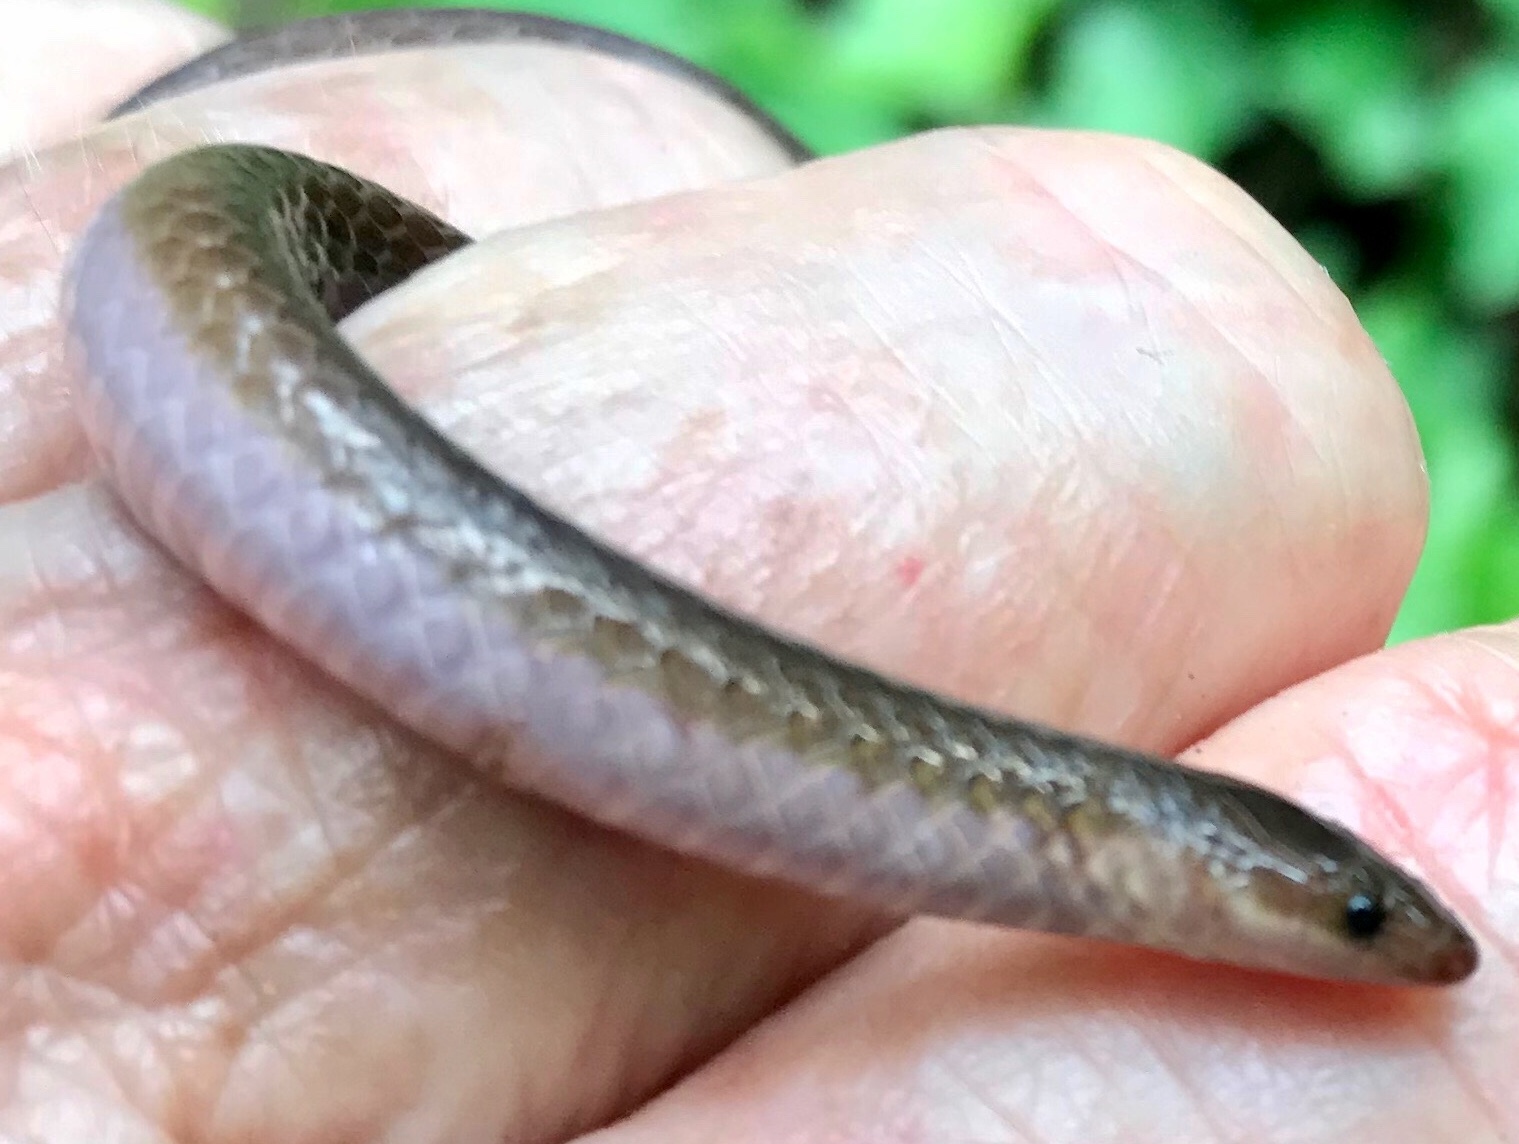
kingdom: Animalia
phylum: Chordata
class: Squamata
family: Colubridae
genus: Carphophis
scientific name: Carphophis amoenus
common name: Eastern worm snake
